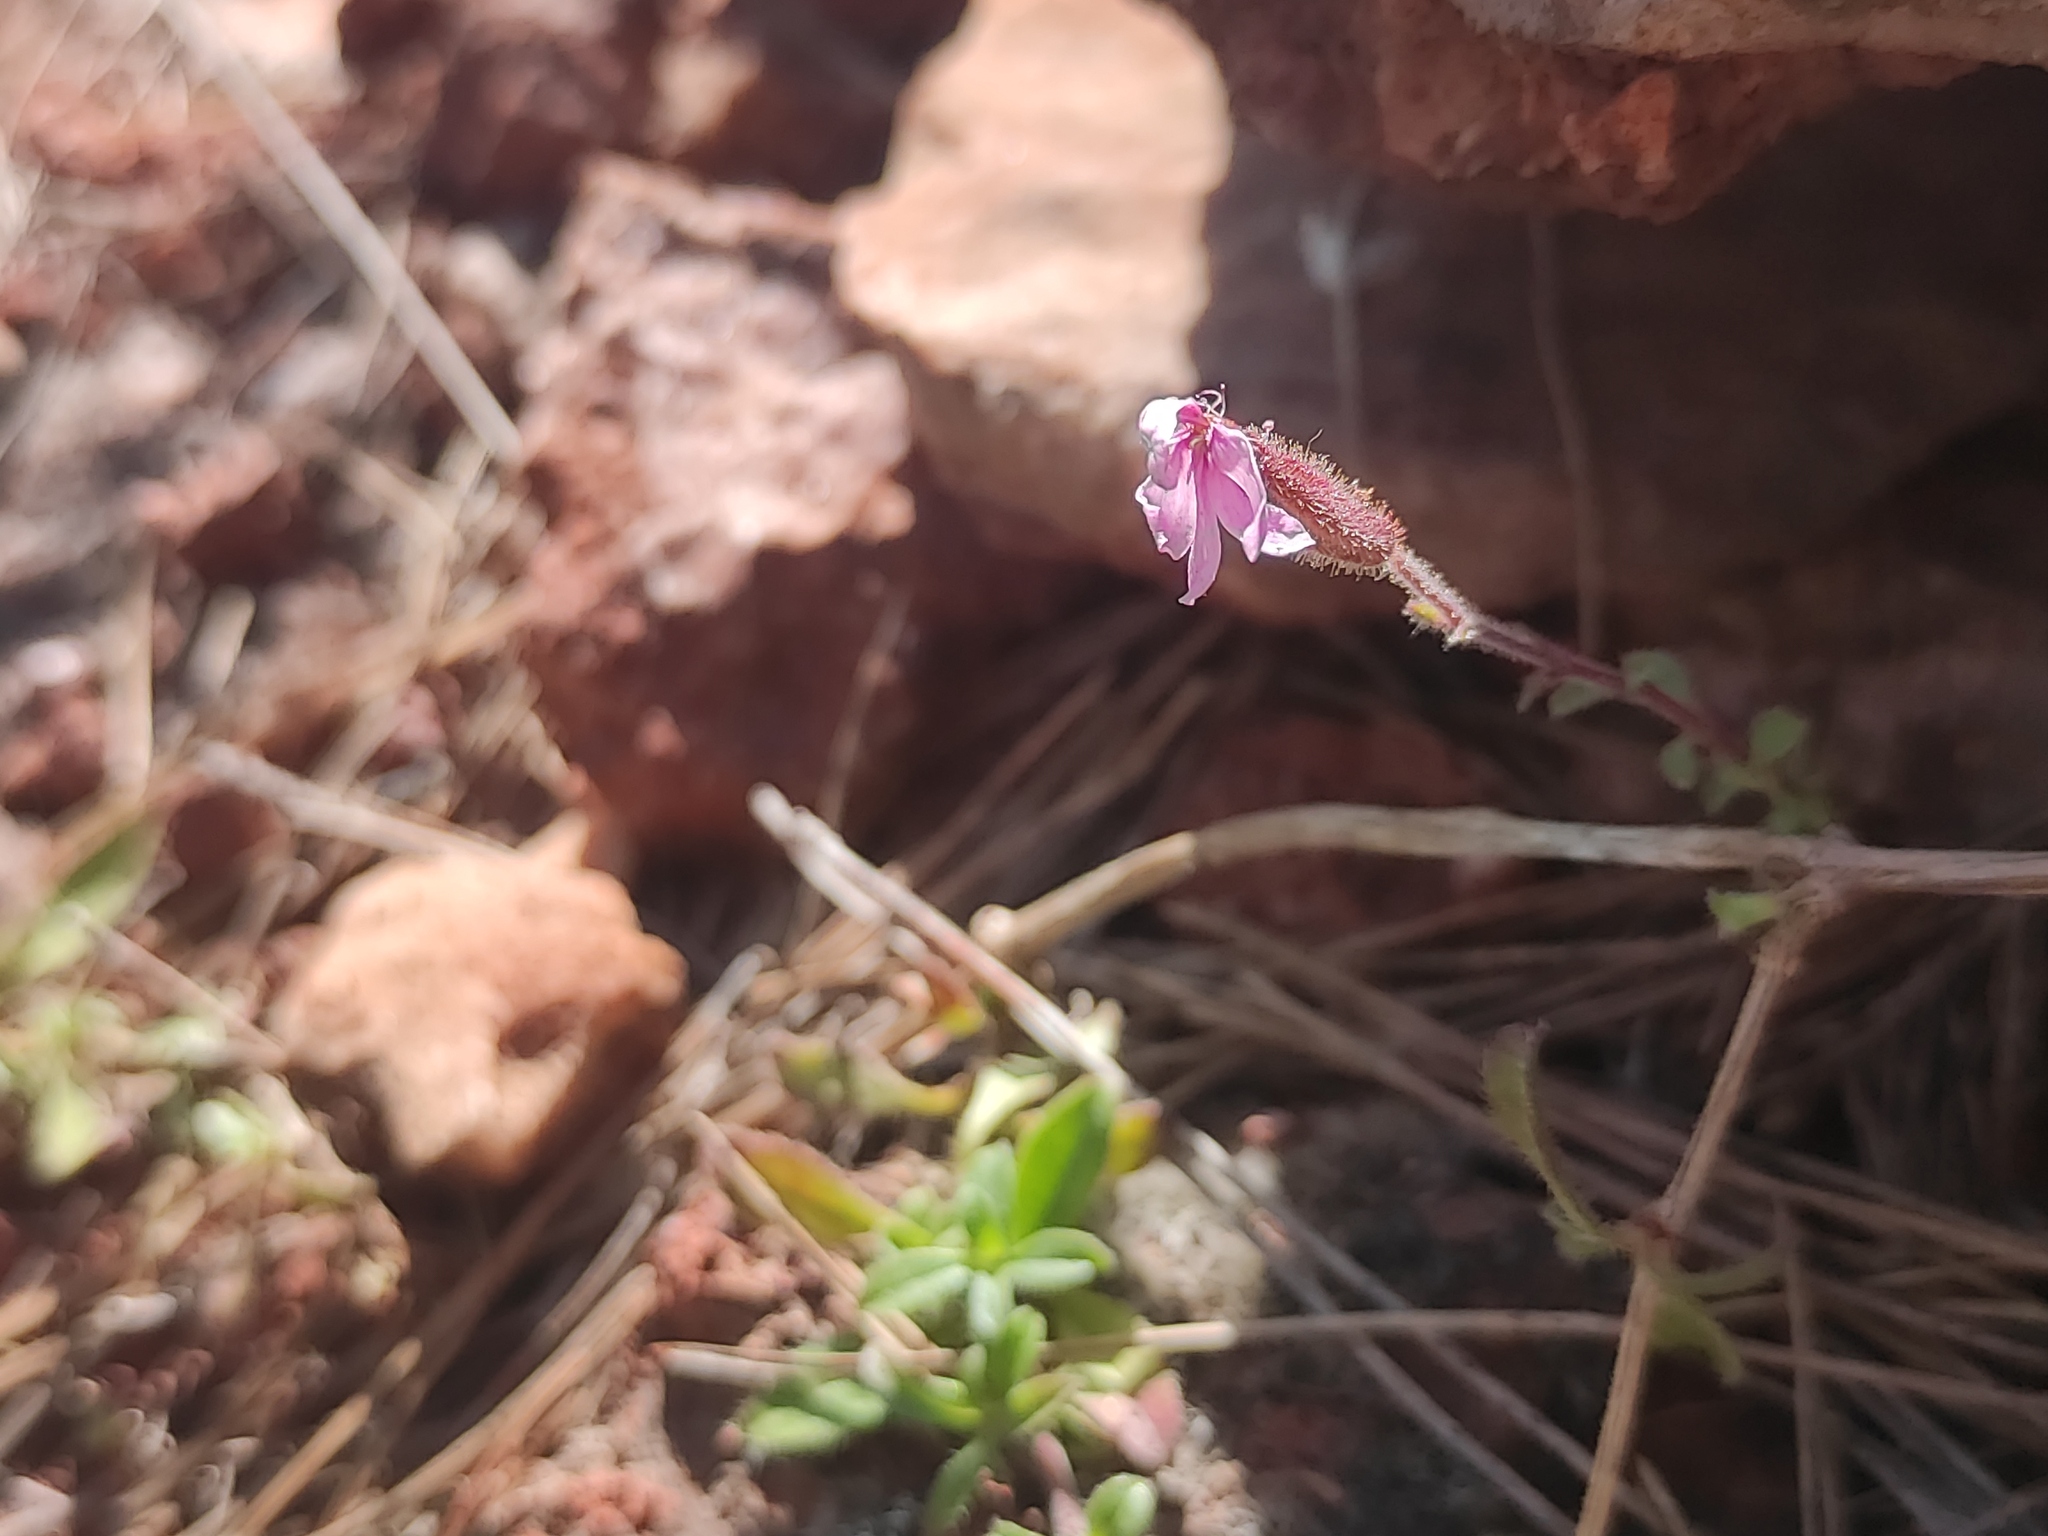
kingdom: Plantae
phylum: Tracheophyta
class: Magnoliopsida
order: Caryophyllales
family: Caryophyllaceae
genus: Saponaria
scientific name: Saponaria ocymoides
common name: Rock soapwort
